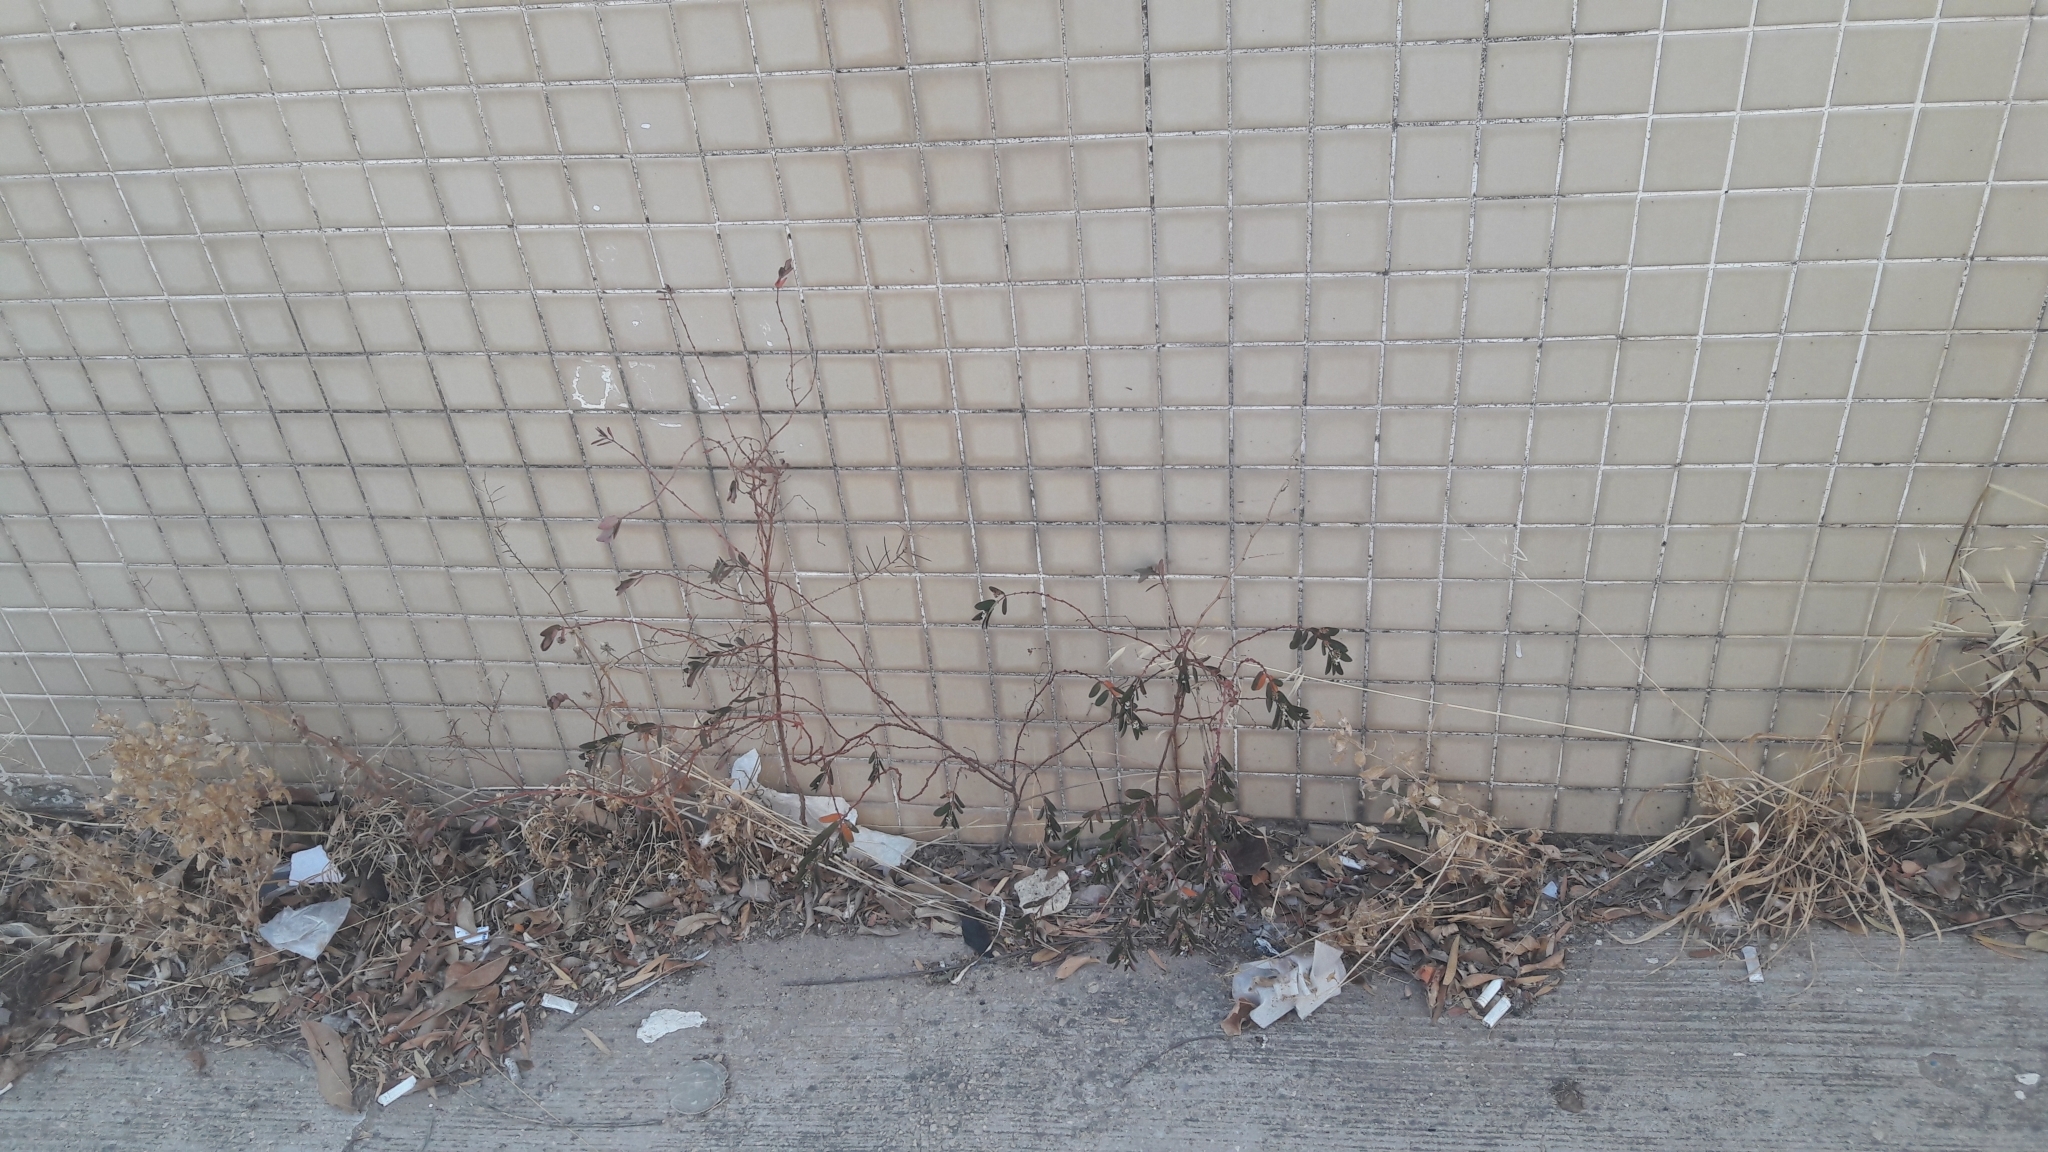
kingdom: Plantae
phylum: Tracheophyta
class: Magnoliopsida
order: Malpighiales
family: Euphorbiaceae
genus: Euphorbia
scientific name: Euphorbia hypericifolia
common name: Graceful sandmat
